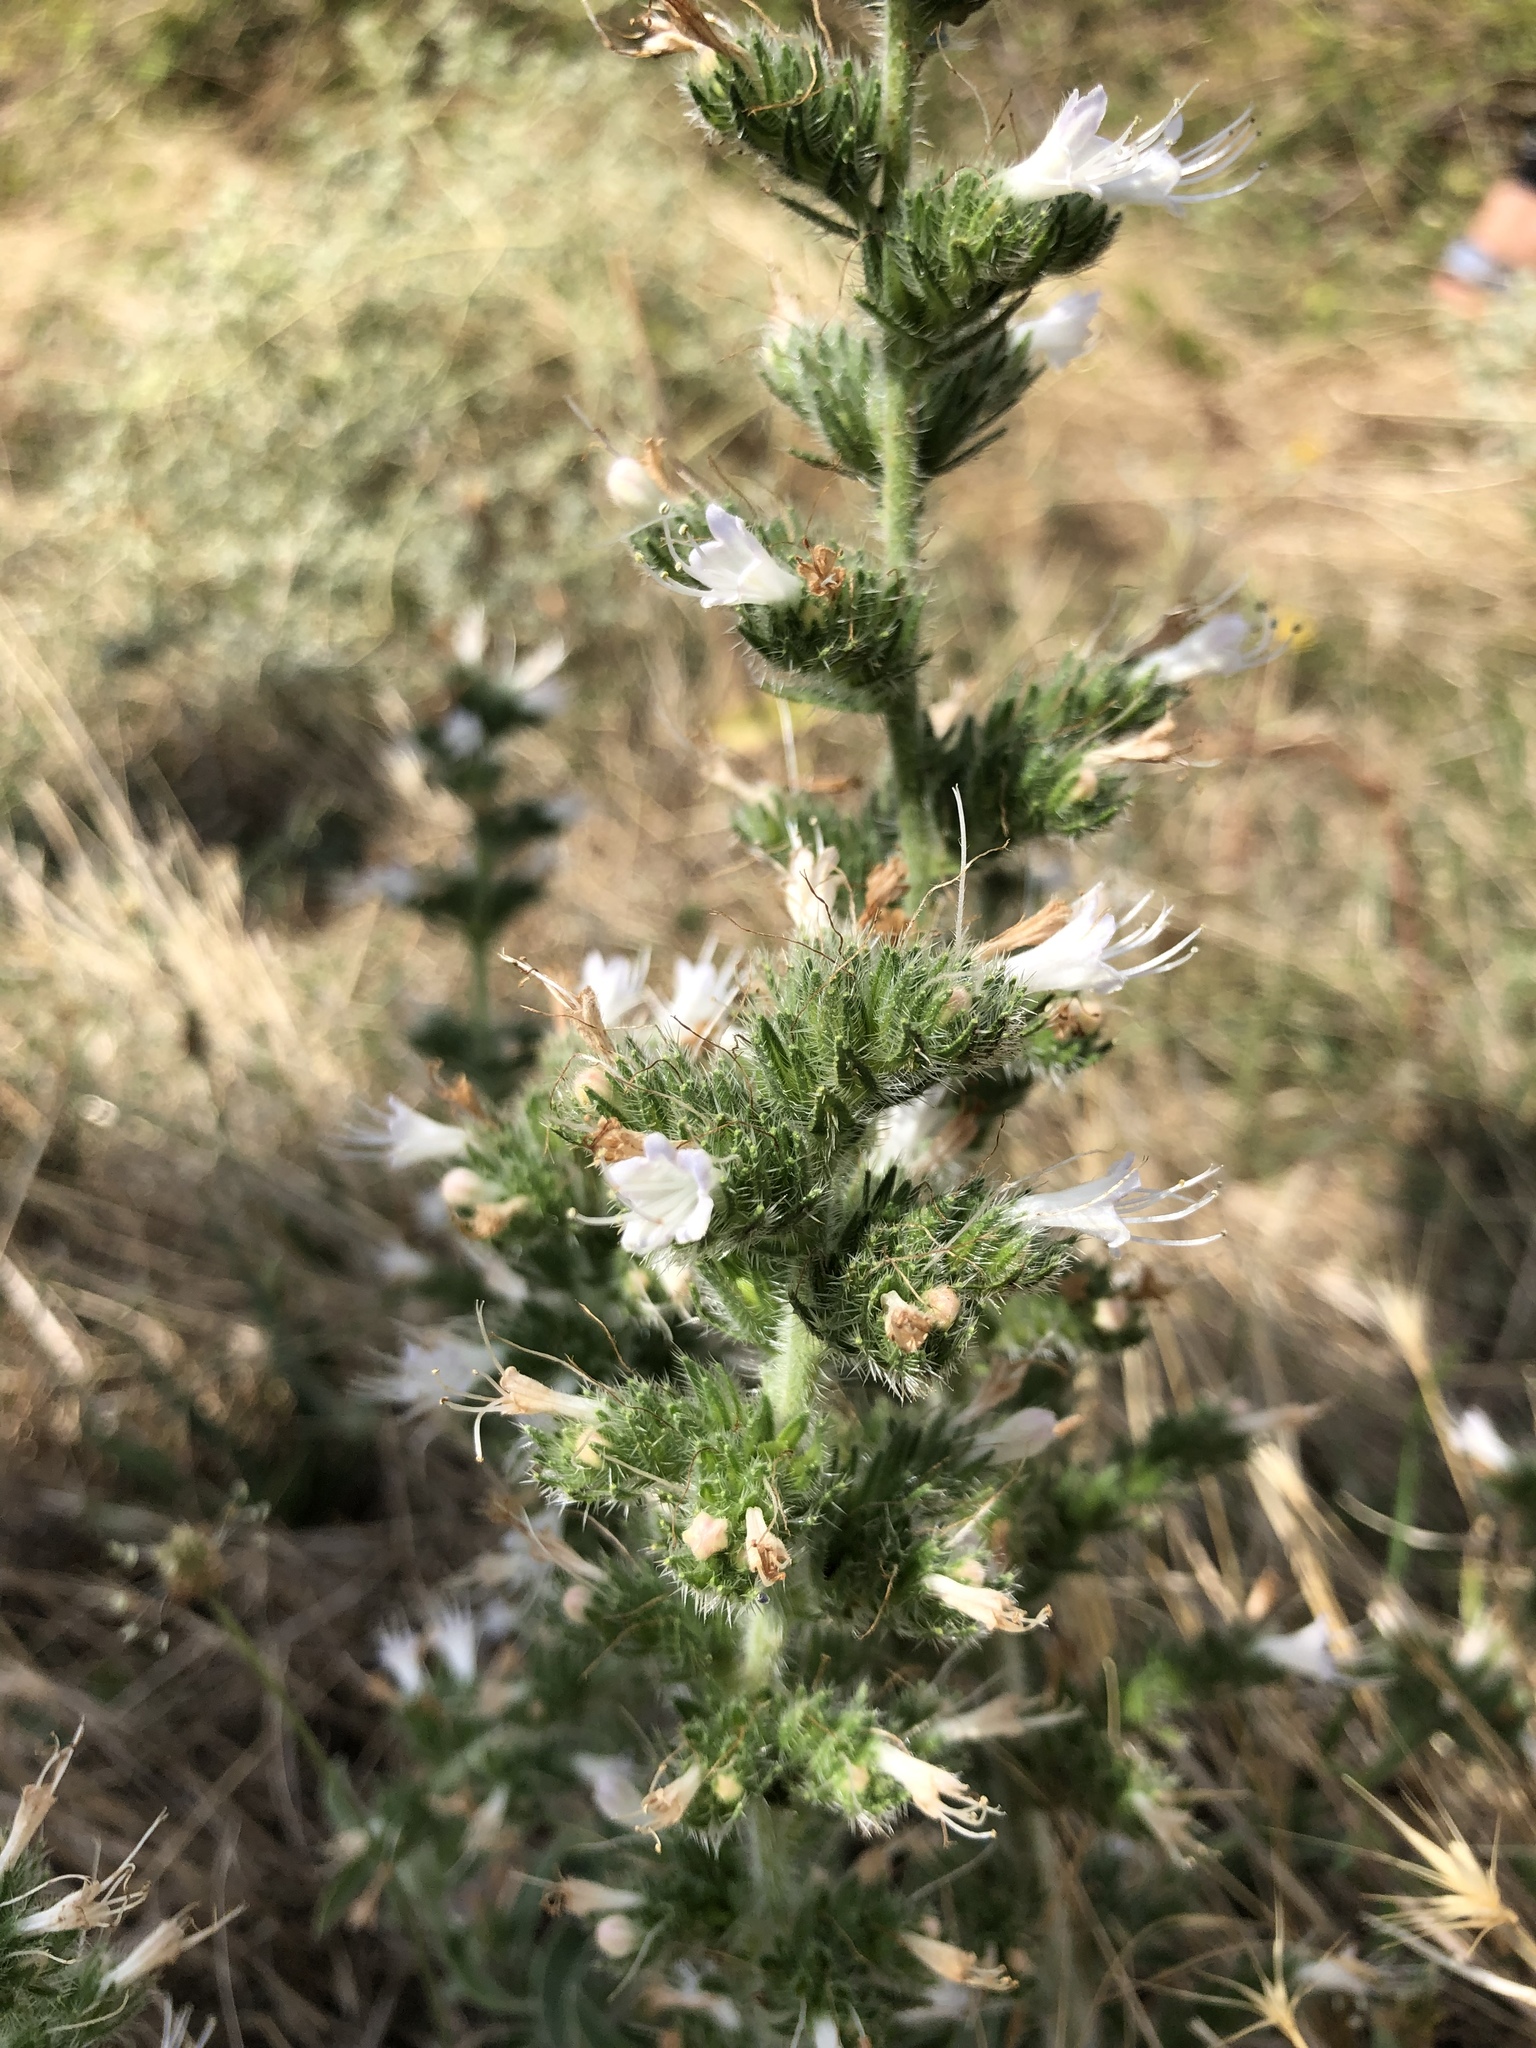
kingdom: Plantae
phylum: Tracheophyta
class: Magnoliopsida
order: Boraginales
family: Boraginaceae
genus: Echium
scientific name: Echium italicum
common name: Italian viper's bugloss
